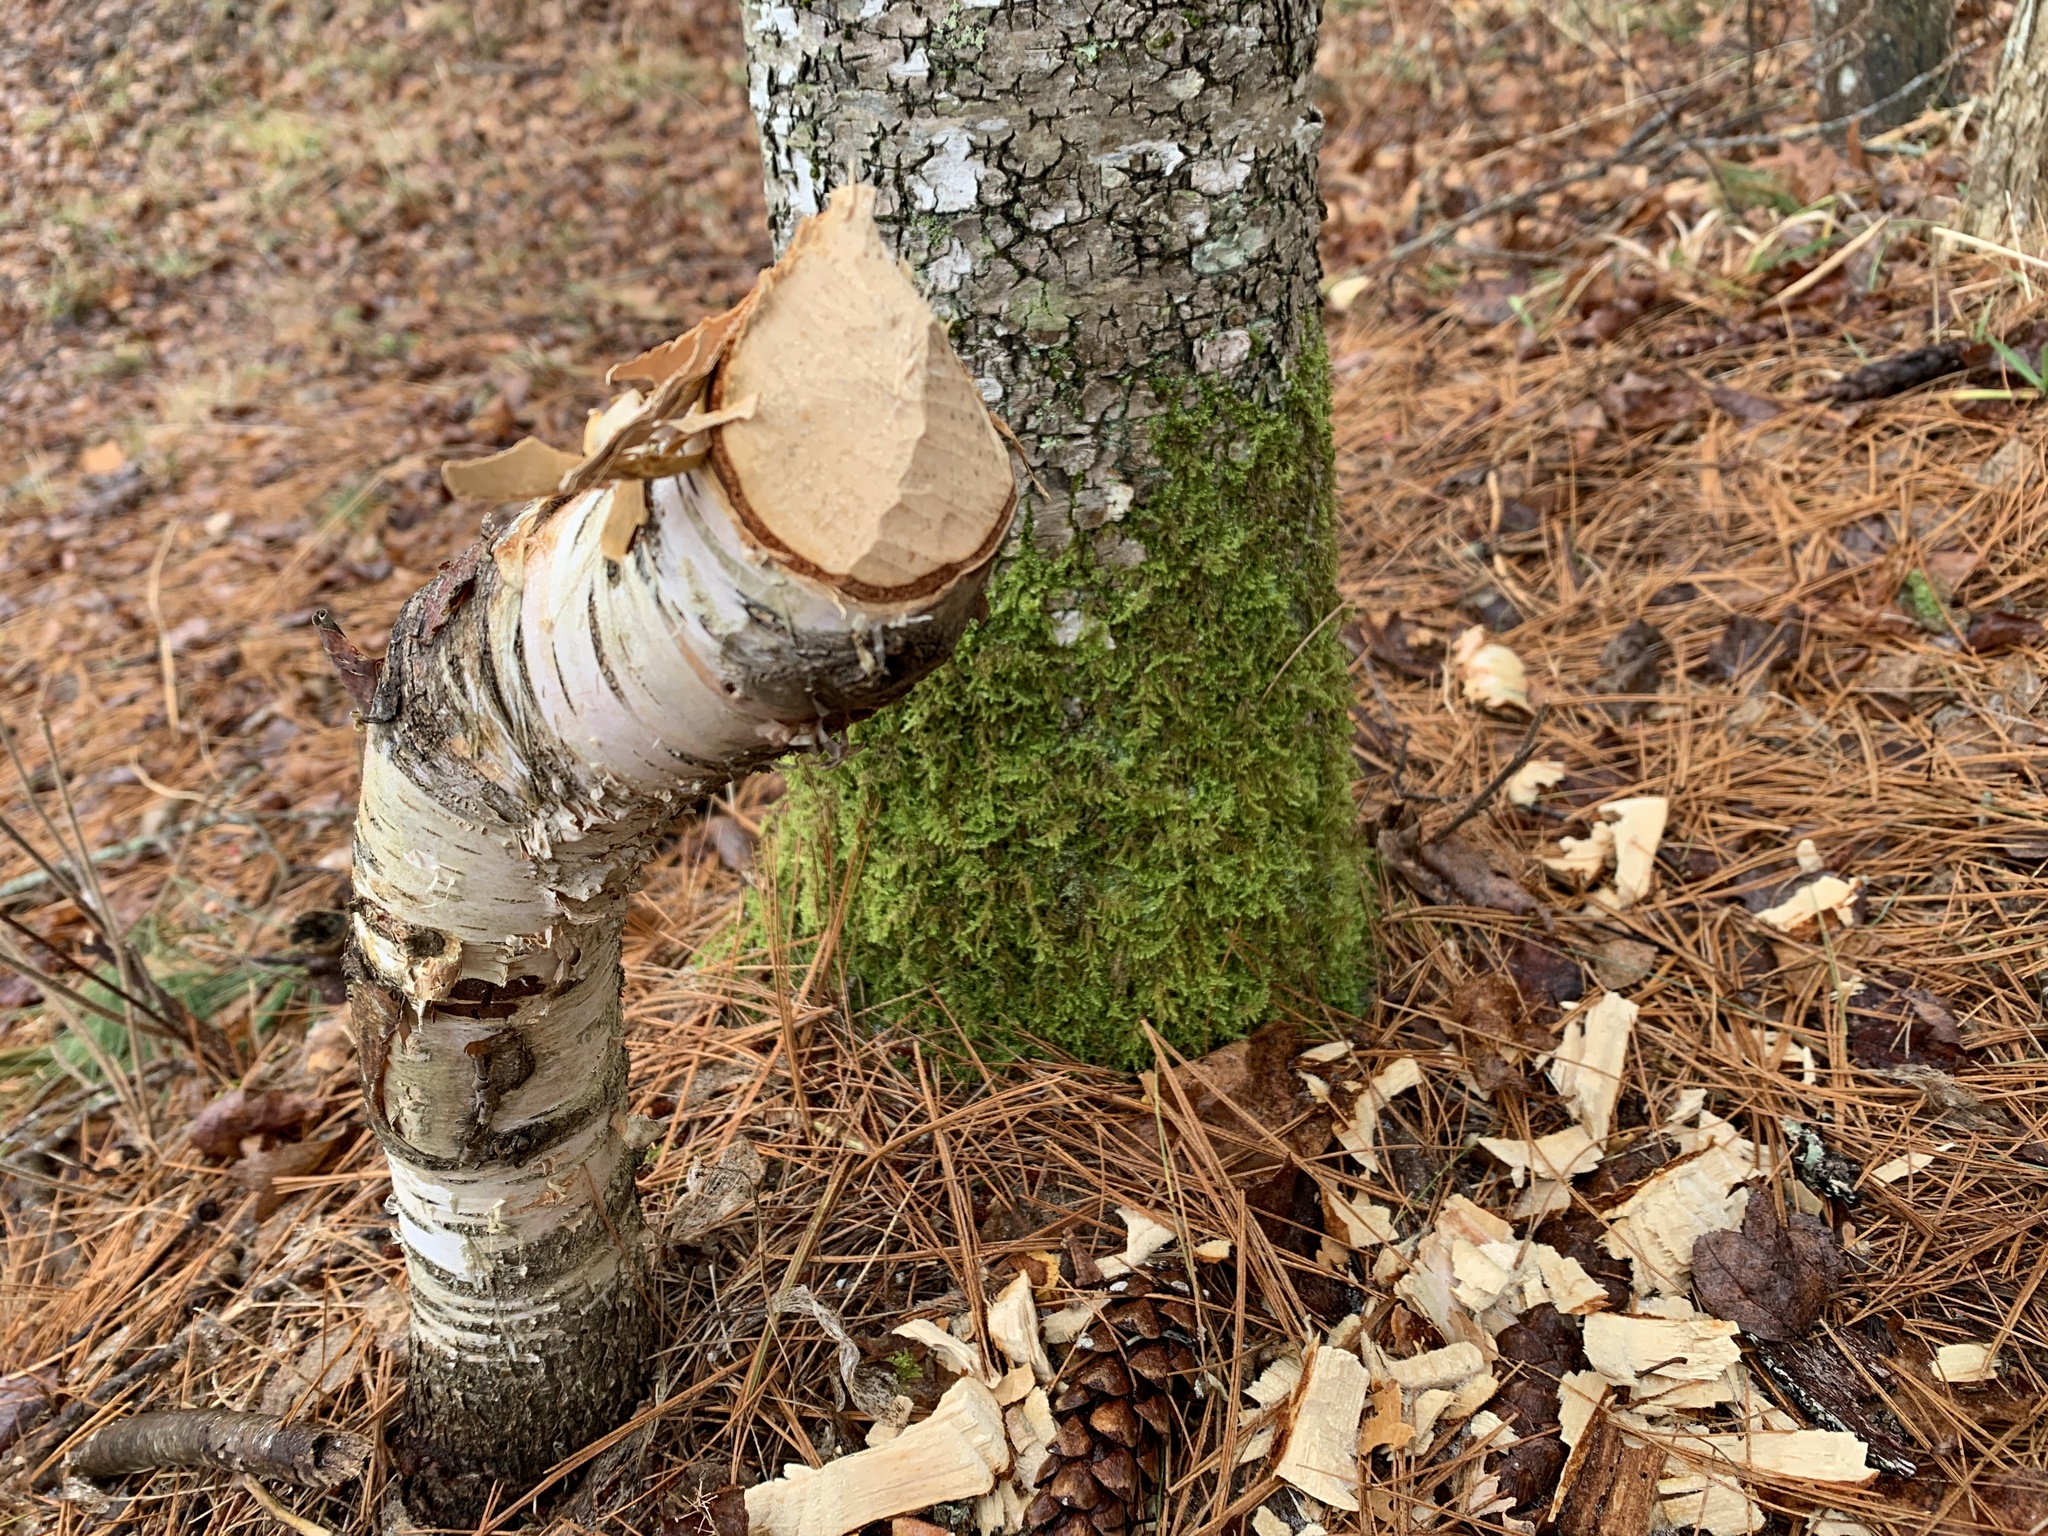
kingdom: Animalia
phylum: Chordata
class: Mammalia
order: Rodentia
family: Castoridae
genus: Castor
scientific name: Castor canadensis
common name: American beaver
